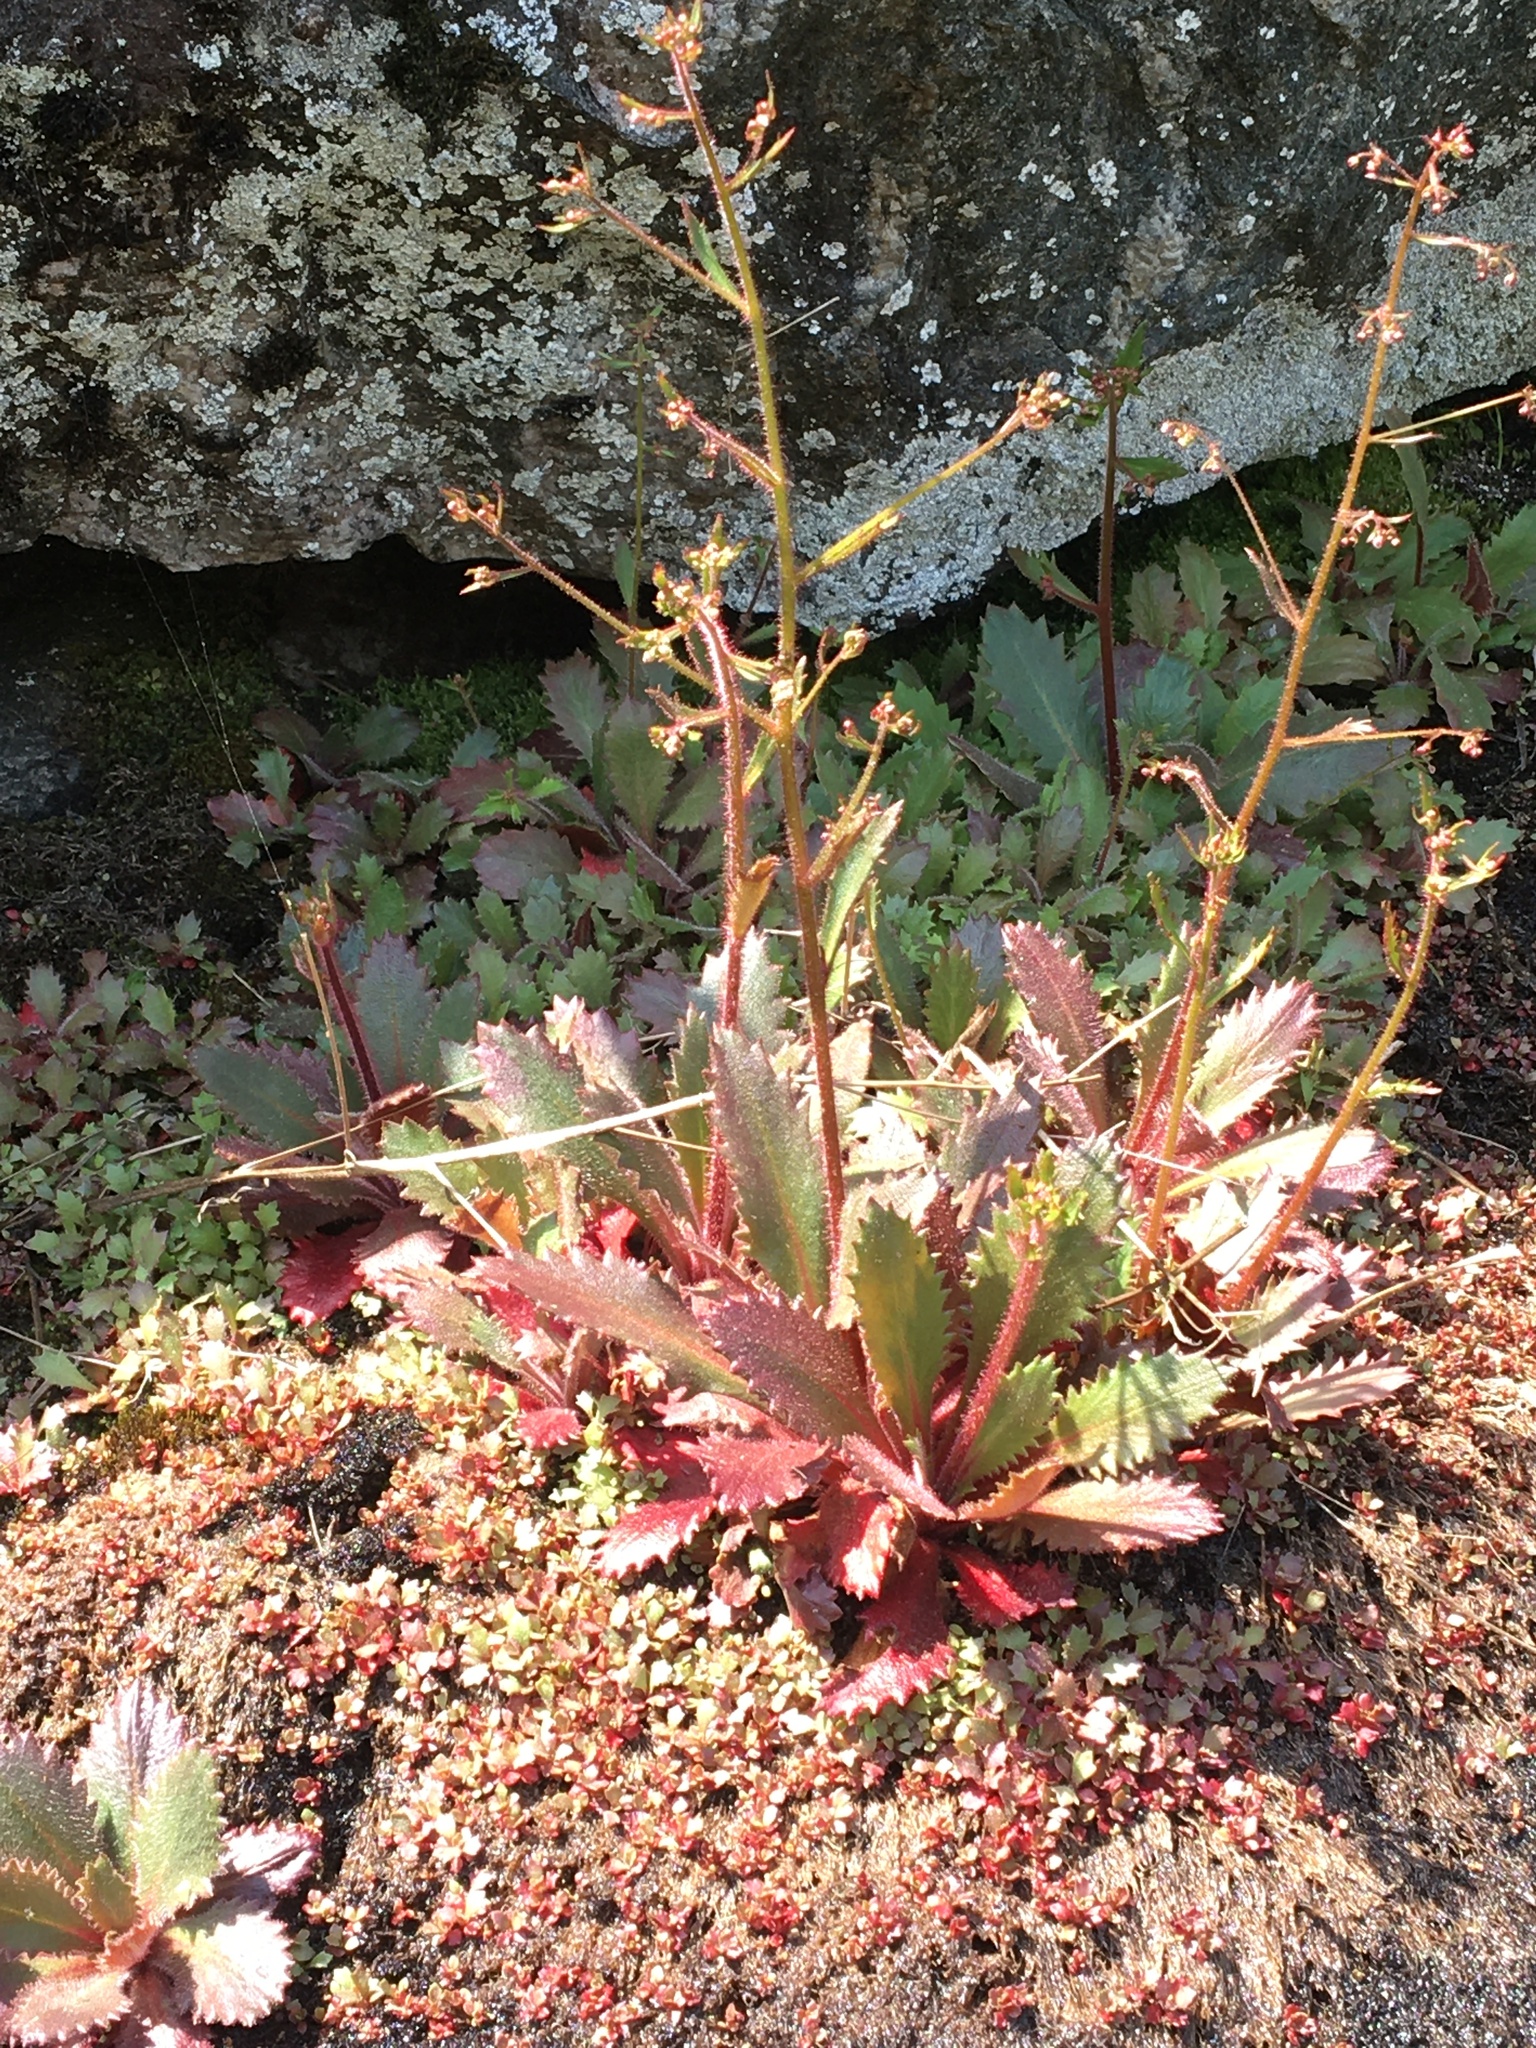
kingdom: Plantae
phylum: Tracheophyta
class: Magnoliopsida
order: Saxifragales
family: Saxifragaceae
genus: Micranthes
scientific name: Micranthes petiolaris
